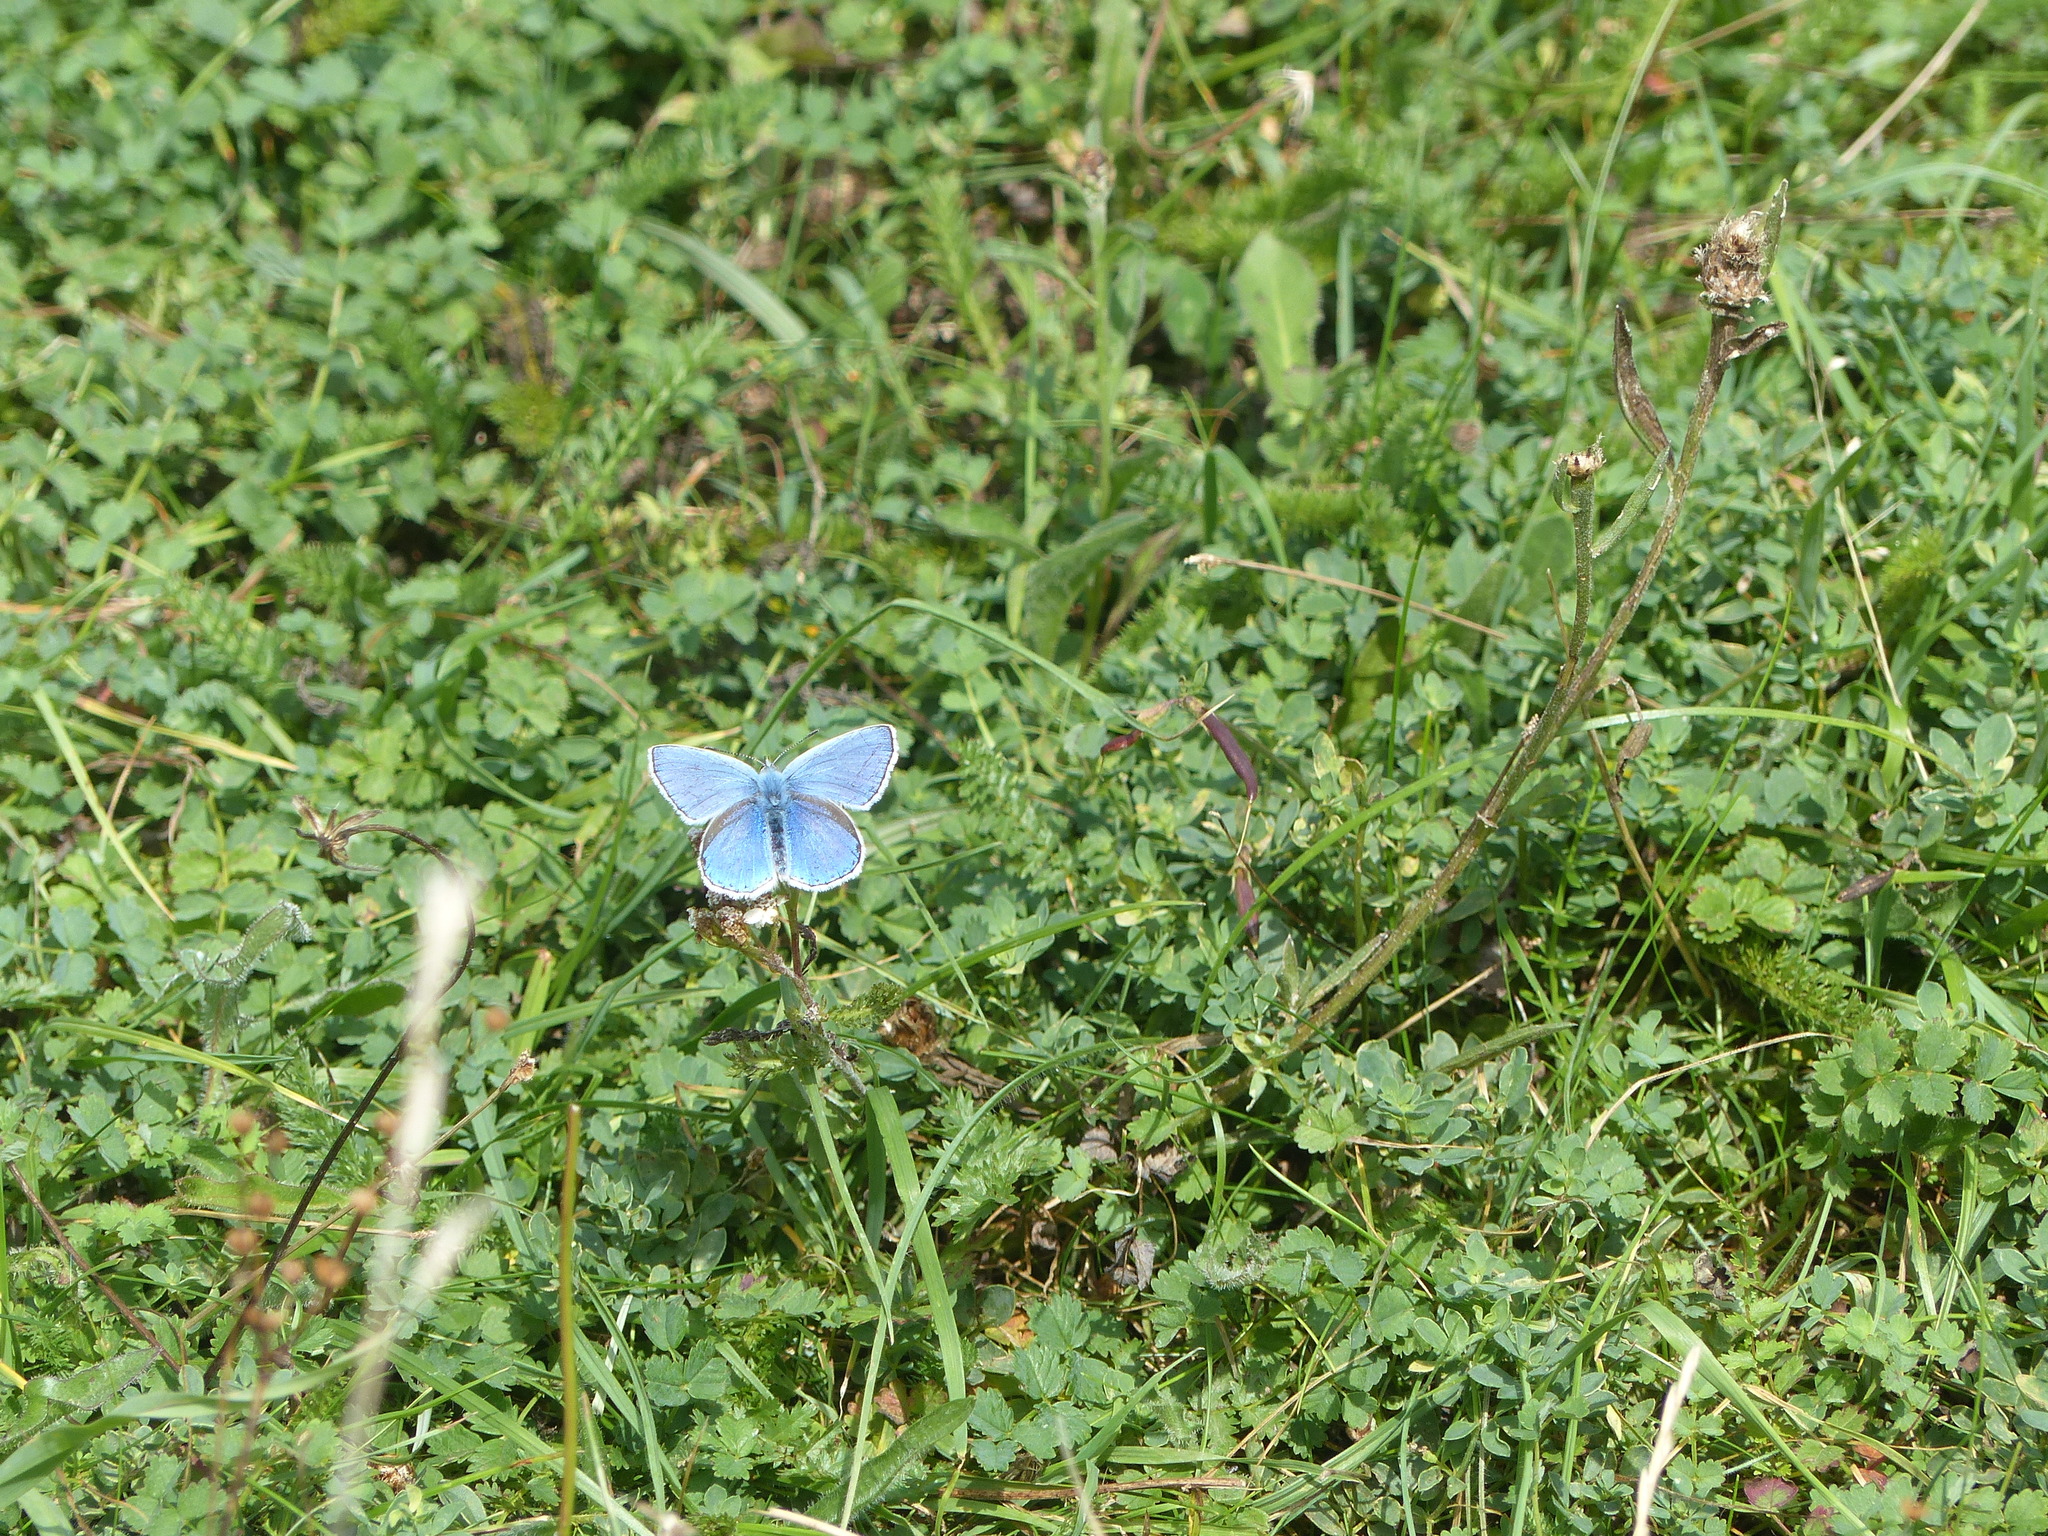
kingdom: Animalia
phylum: Arthropoda
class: Insecta
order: Lepidoptera
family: Lycaenidae
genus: Lysandra
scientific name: Lysandra bellargus
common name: Adonis blue
